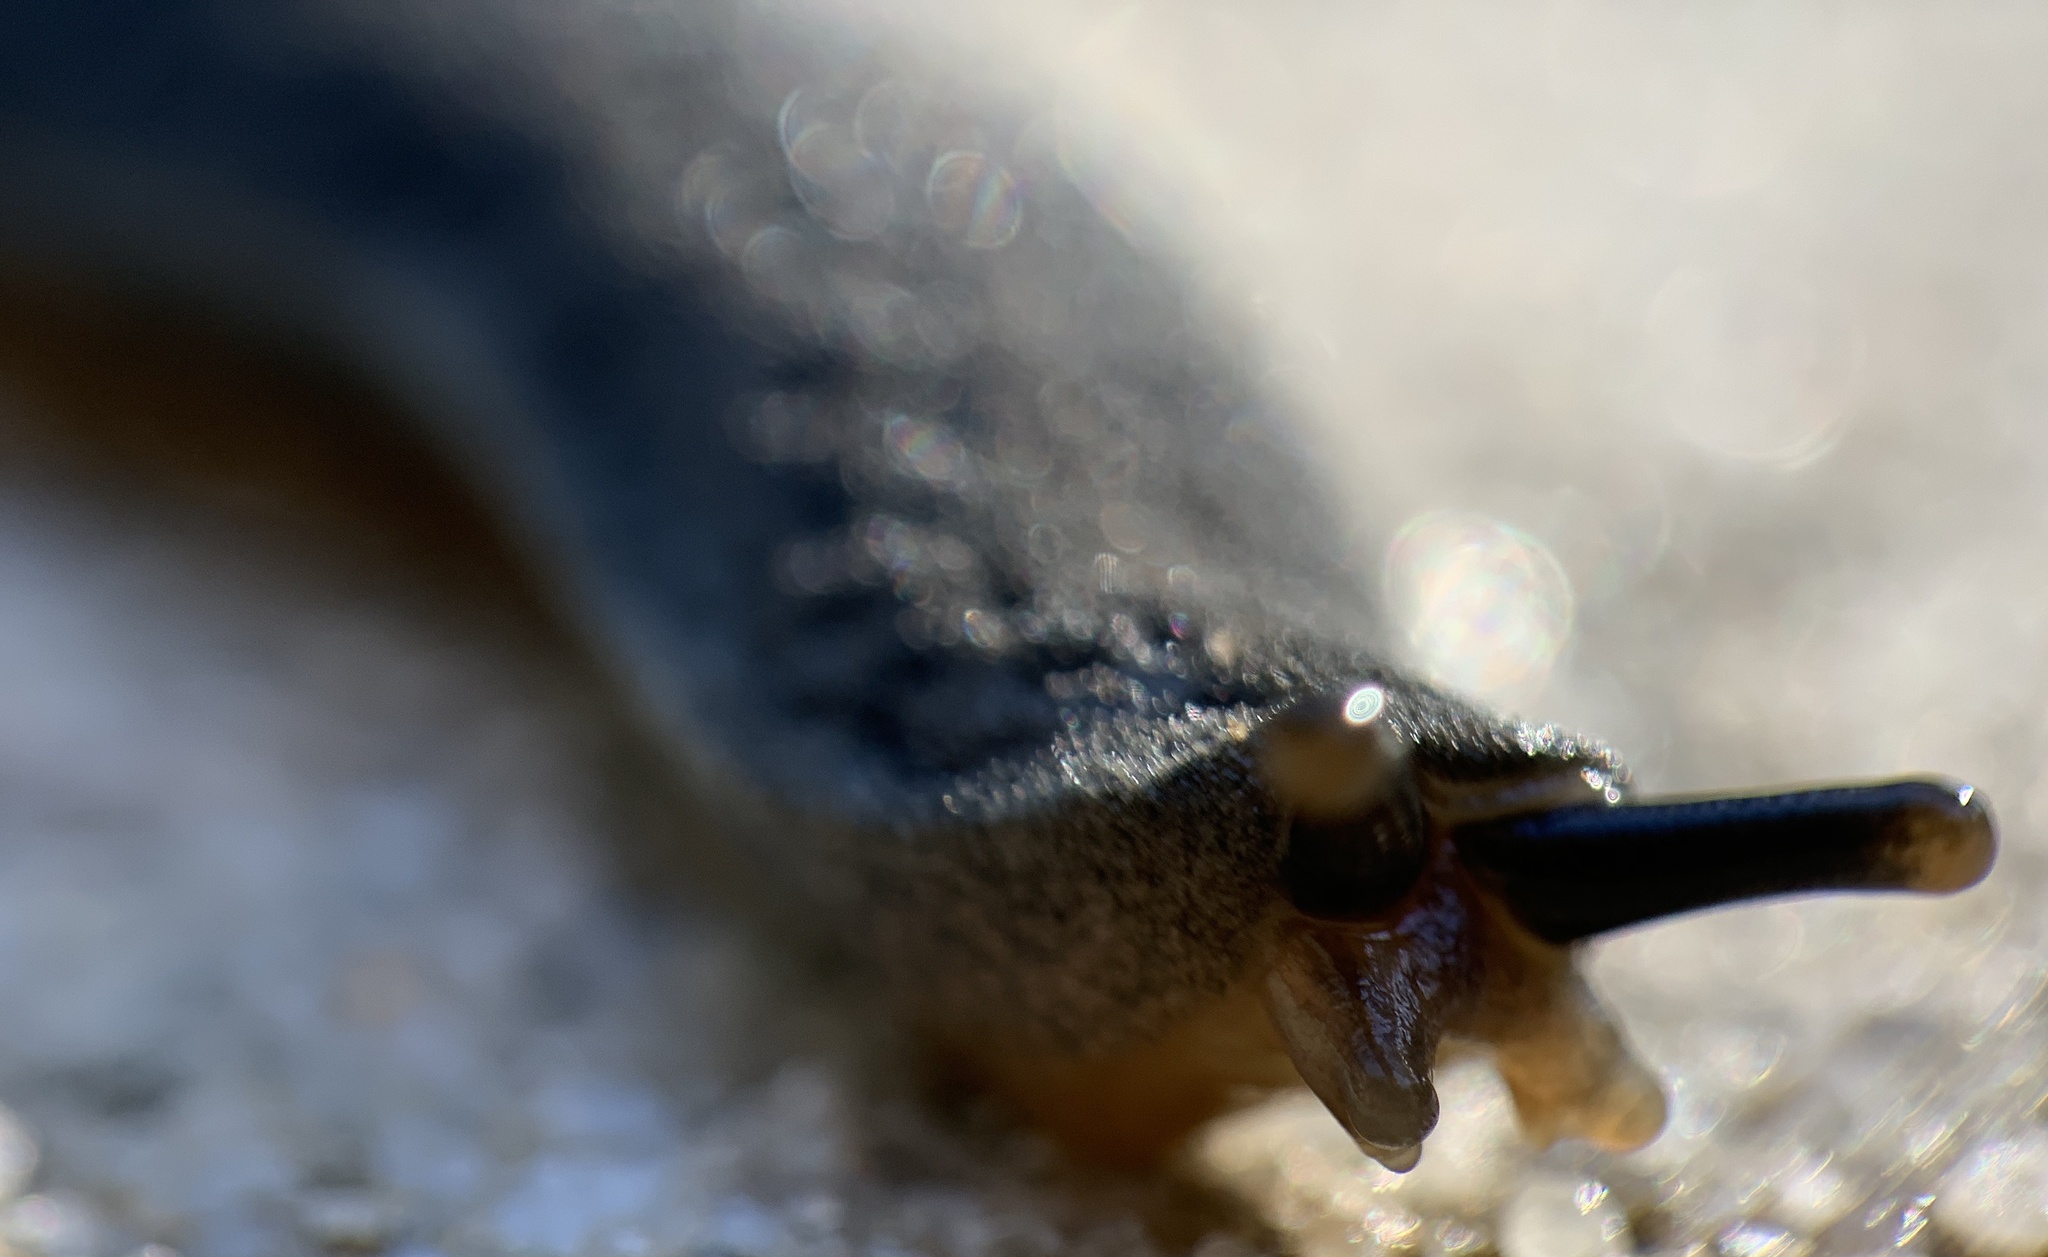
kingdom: Animalia
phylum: Mollusca
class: Gastropoda
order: Systellommatophora
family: Veronicellidae
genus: Belocaulus
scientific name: Belocaulus angustipes
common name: Black velvet leatherleaf slug
